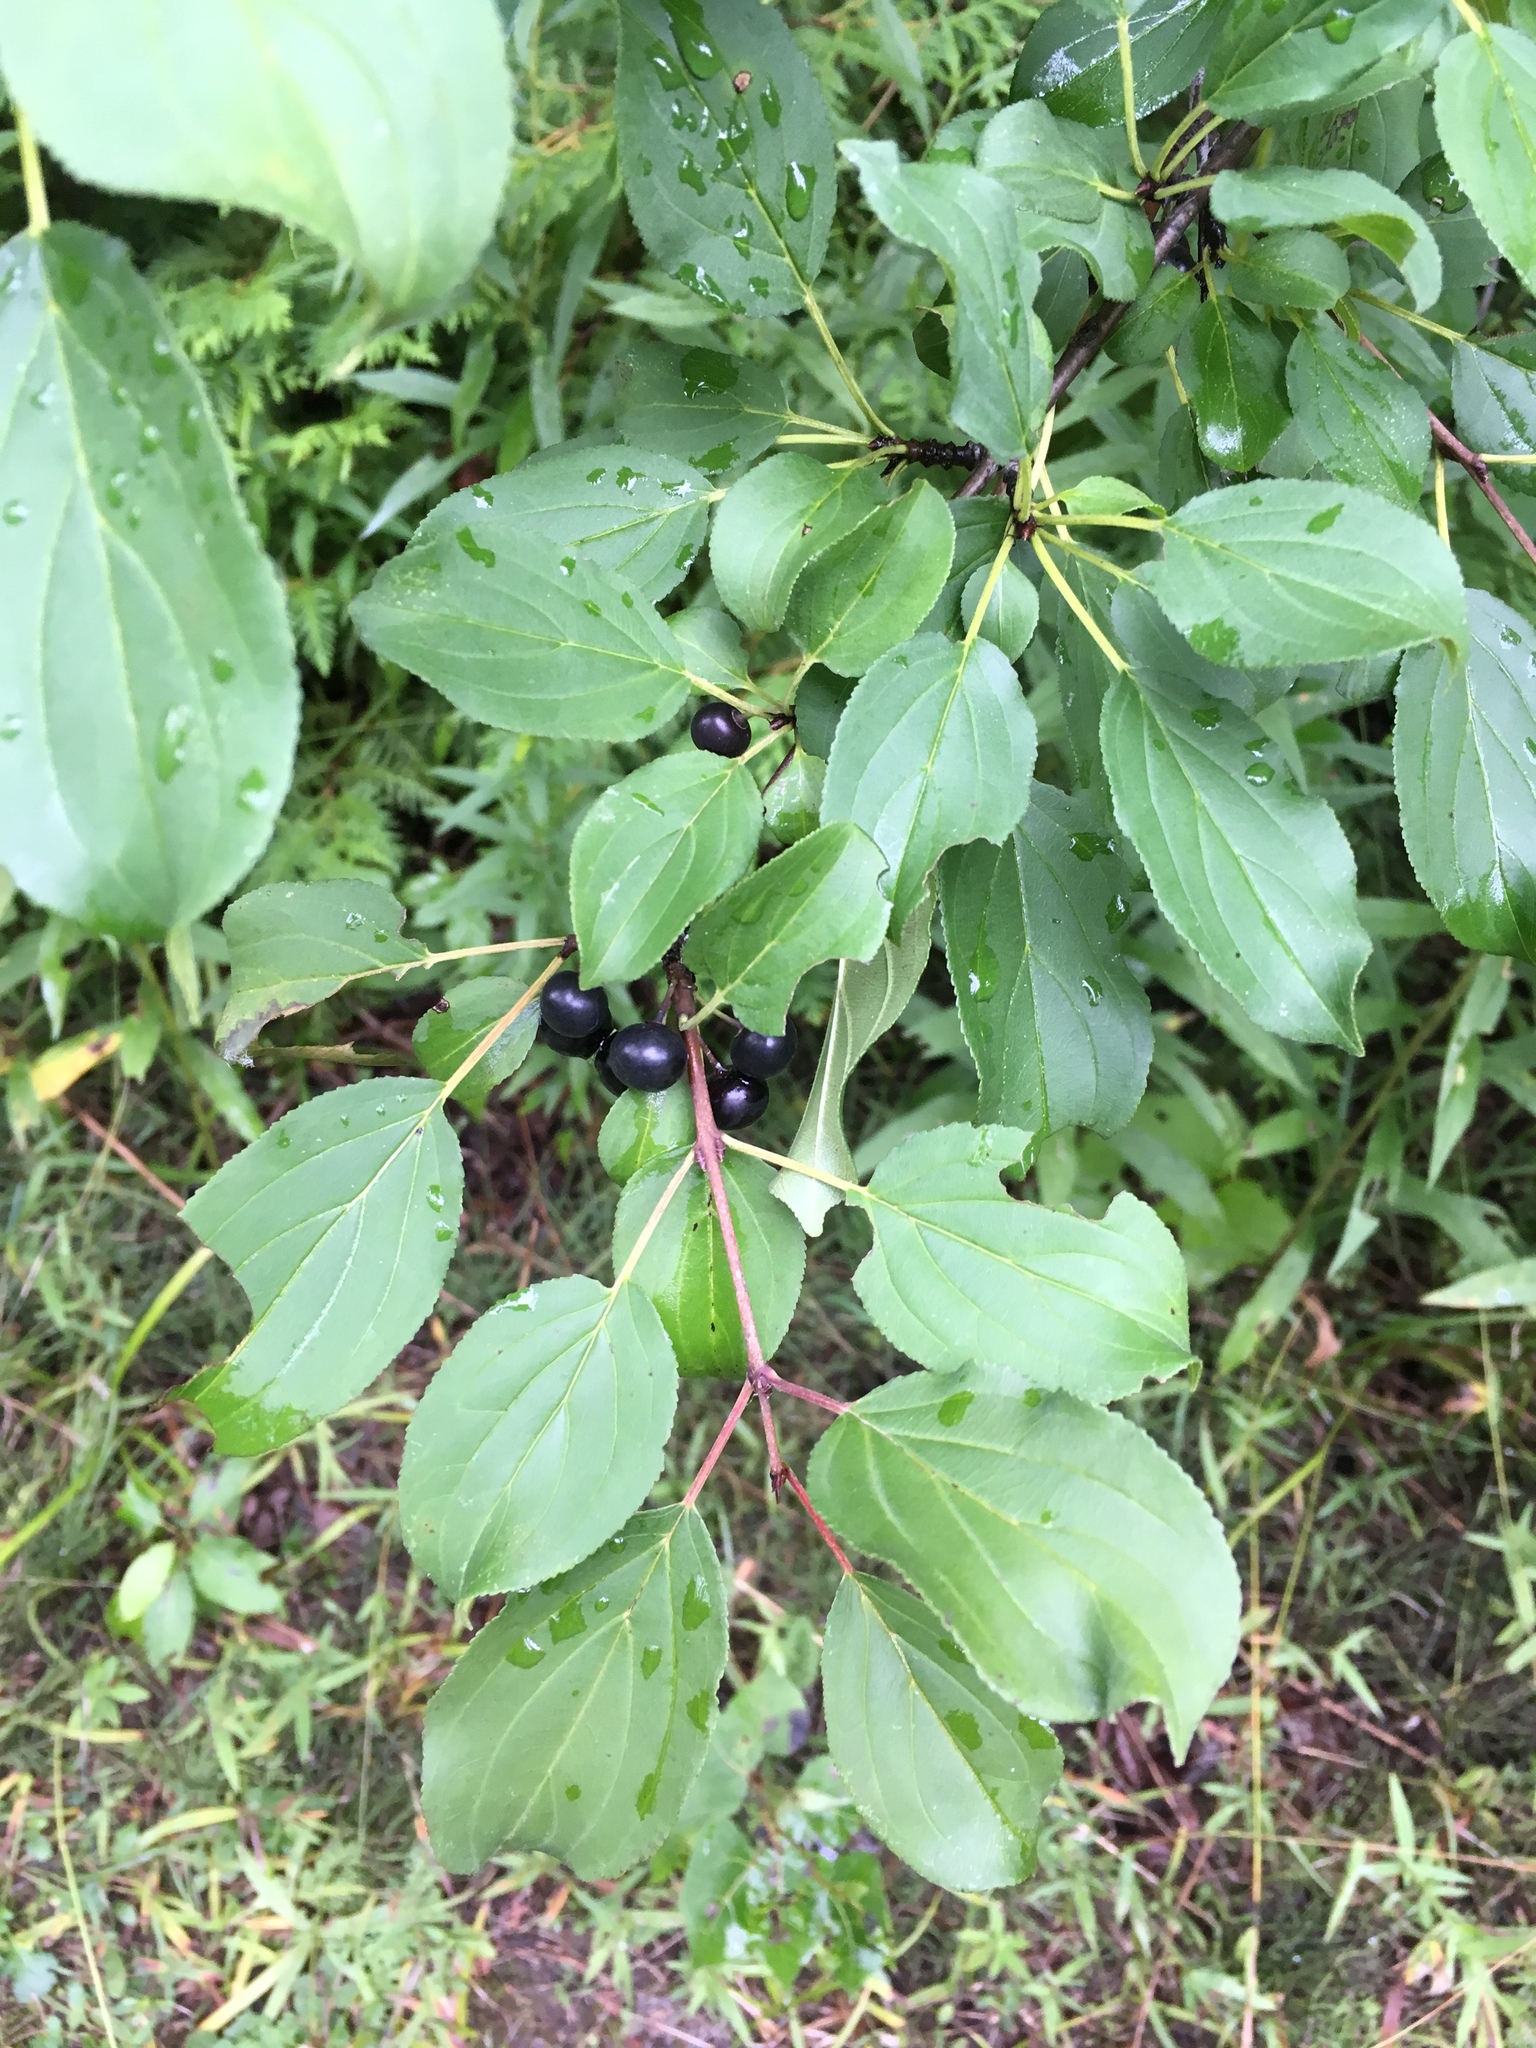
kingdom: Plantae
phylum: Tracheophyta
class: Magnoliopsida
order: Rosales
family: Rhamnaceae
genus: Rhamnus
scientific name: Rhamnus cathartica
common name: Common buckthorn
